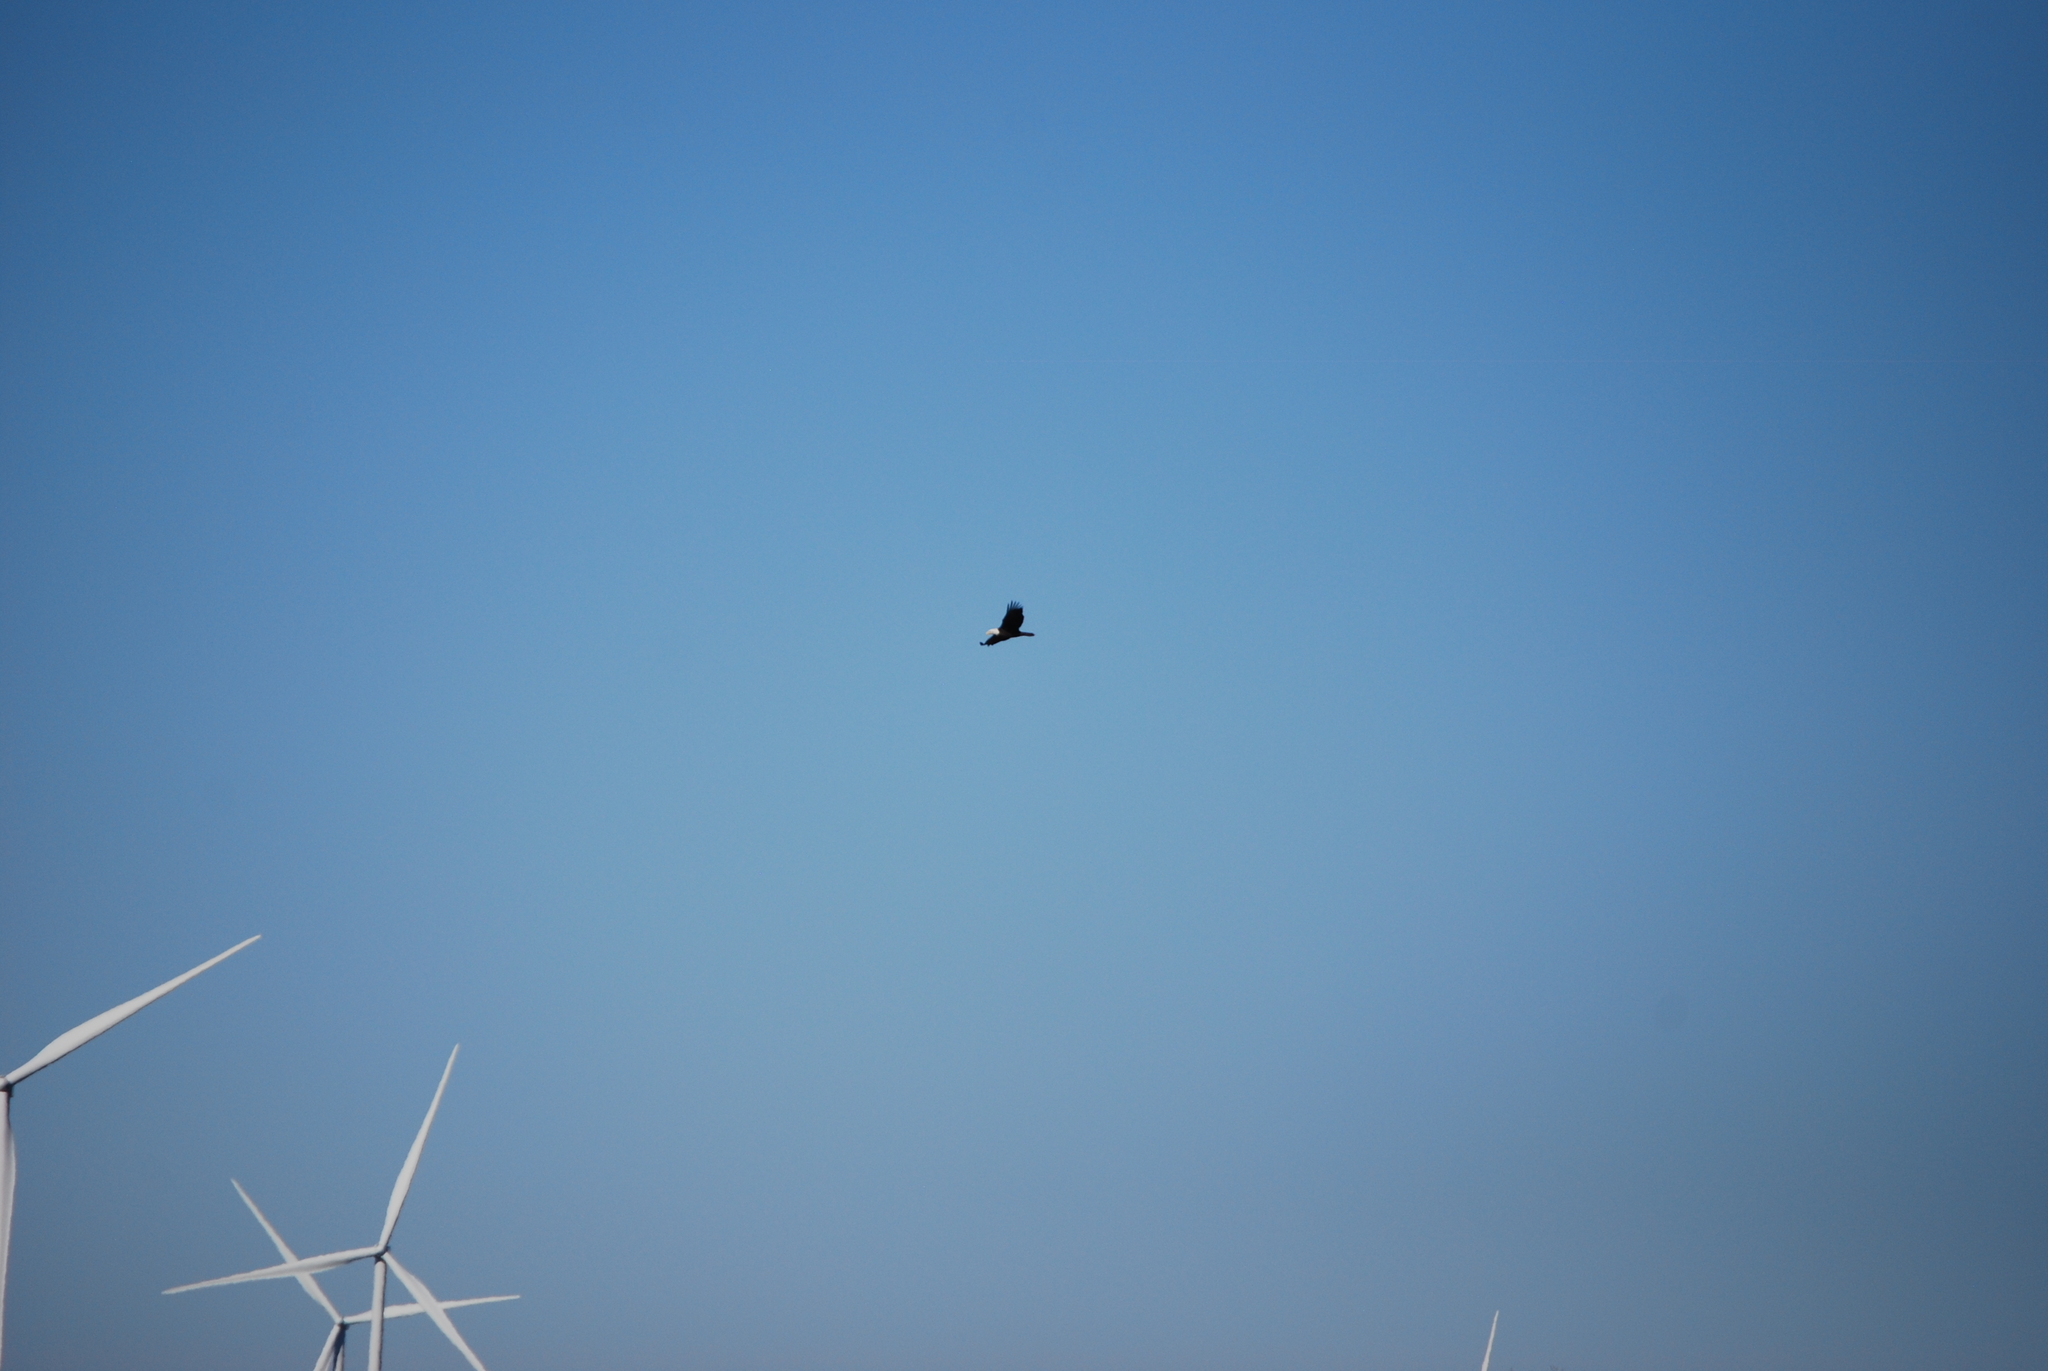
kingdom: Animalia
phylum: Chordata
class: Aves
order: Accipitriformes
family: Accipitridae
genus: Haliaeetus
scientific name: Haliaeetus leucocephalus
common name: Bald eagle
